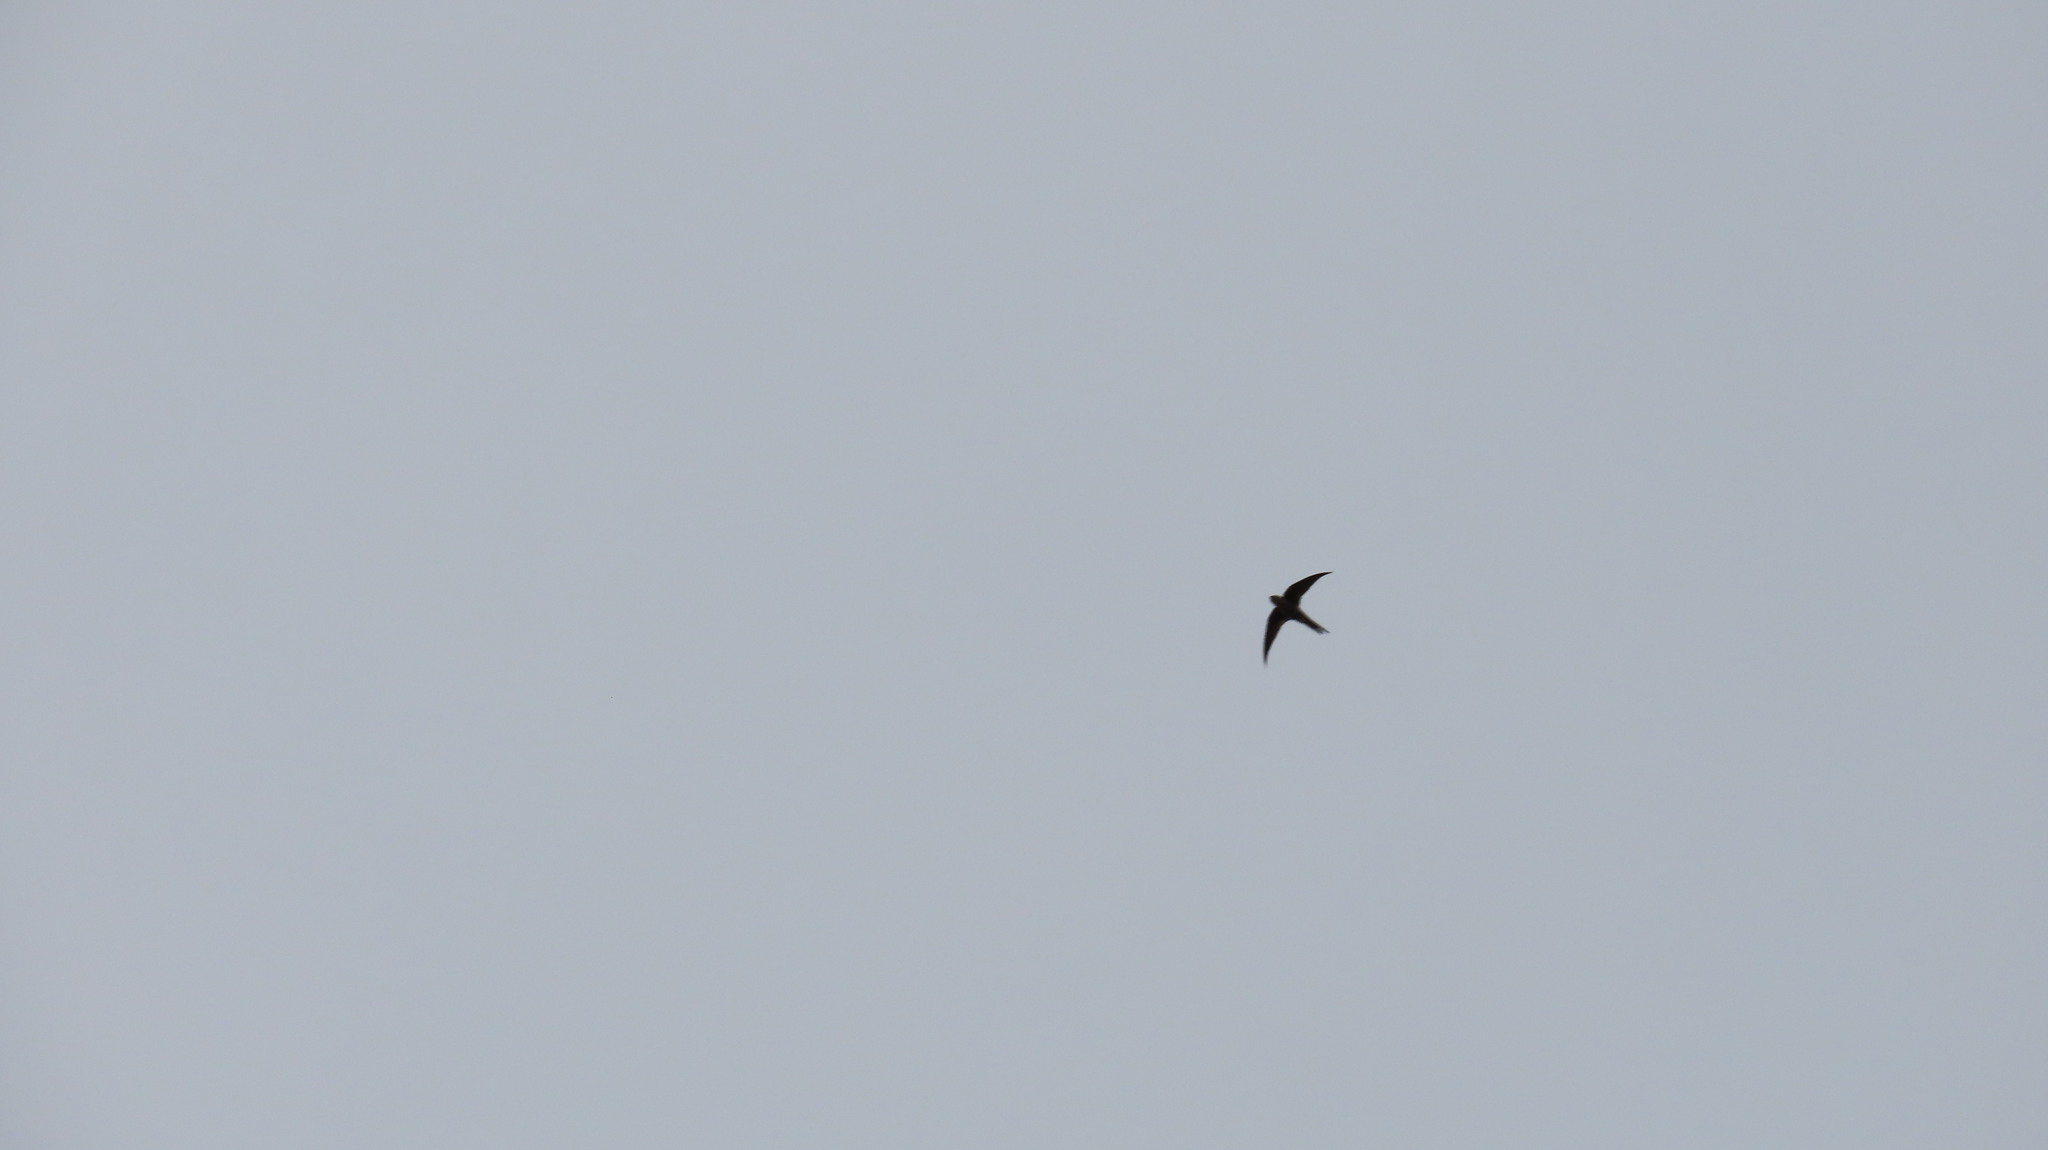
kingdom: Animalia
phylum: Chordata
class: Aves
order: Apodiformes
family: Apodidae
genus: Cypsiurus
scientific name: Cypsiurus balasiensis
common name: Asian palm swift
